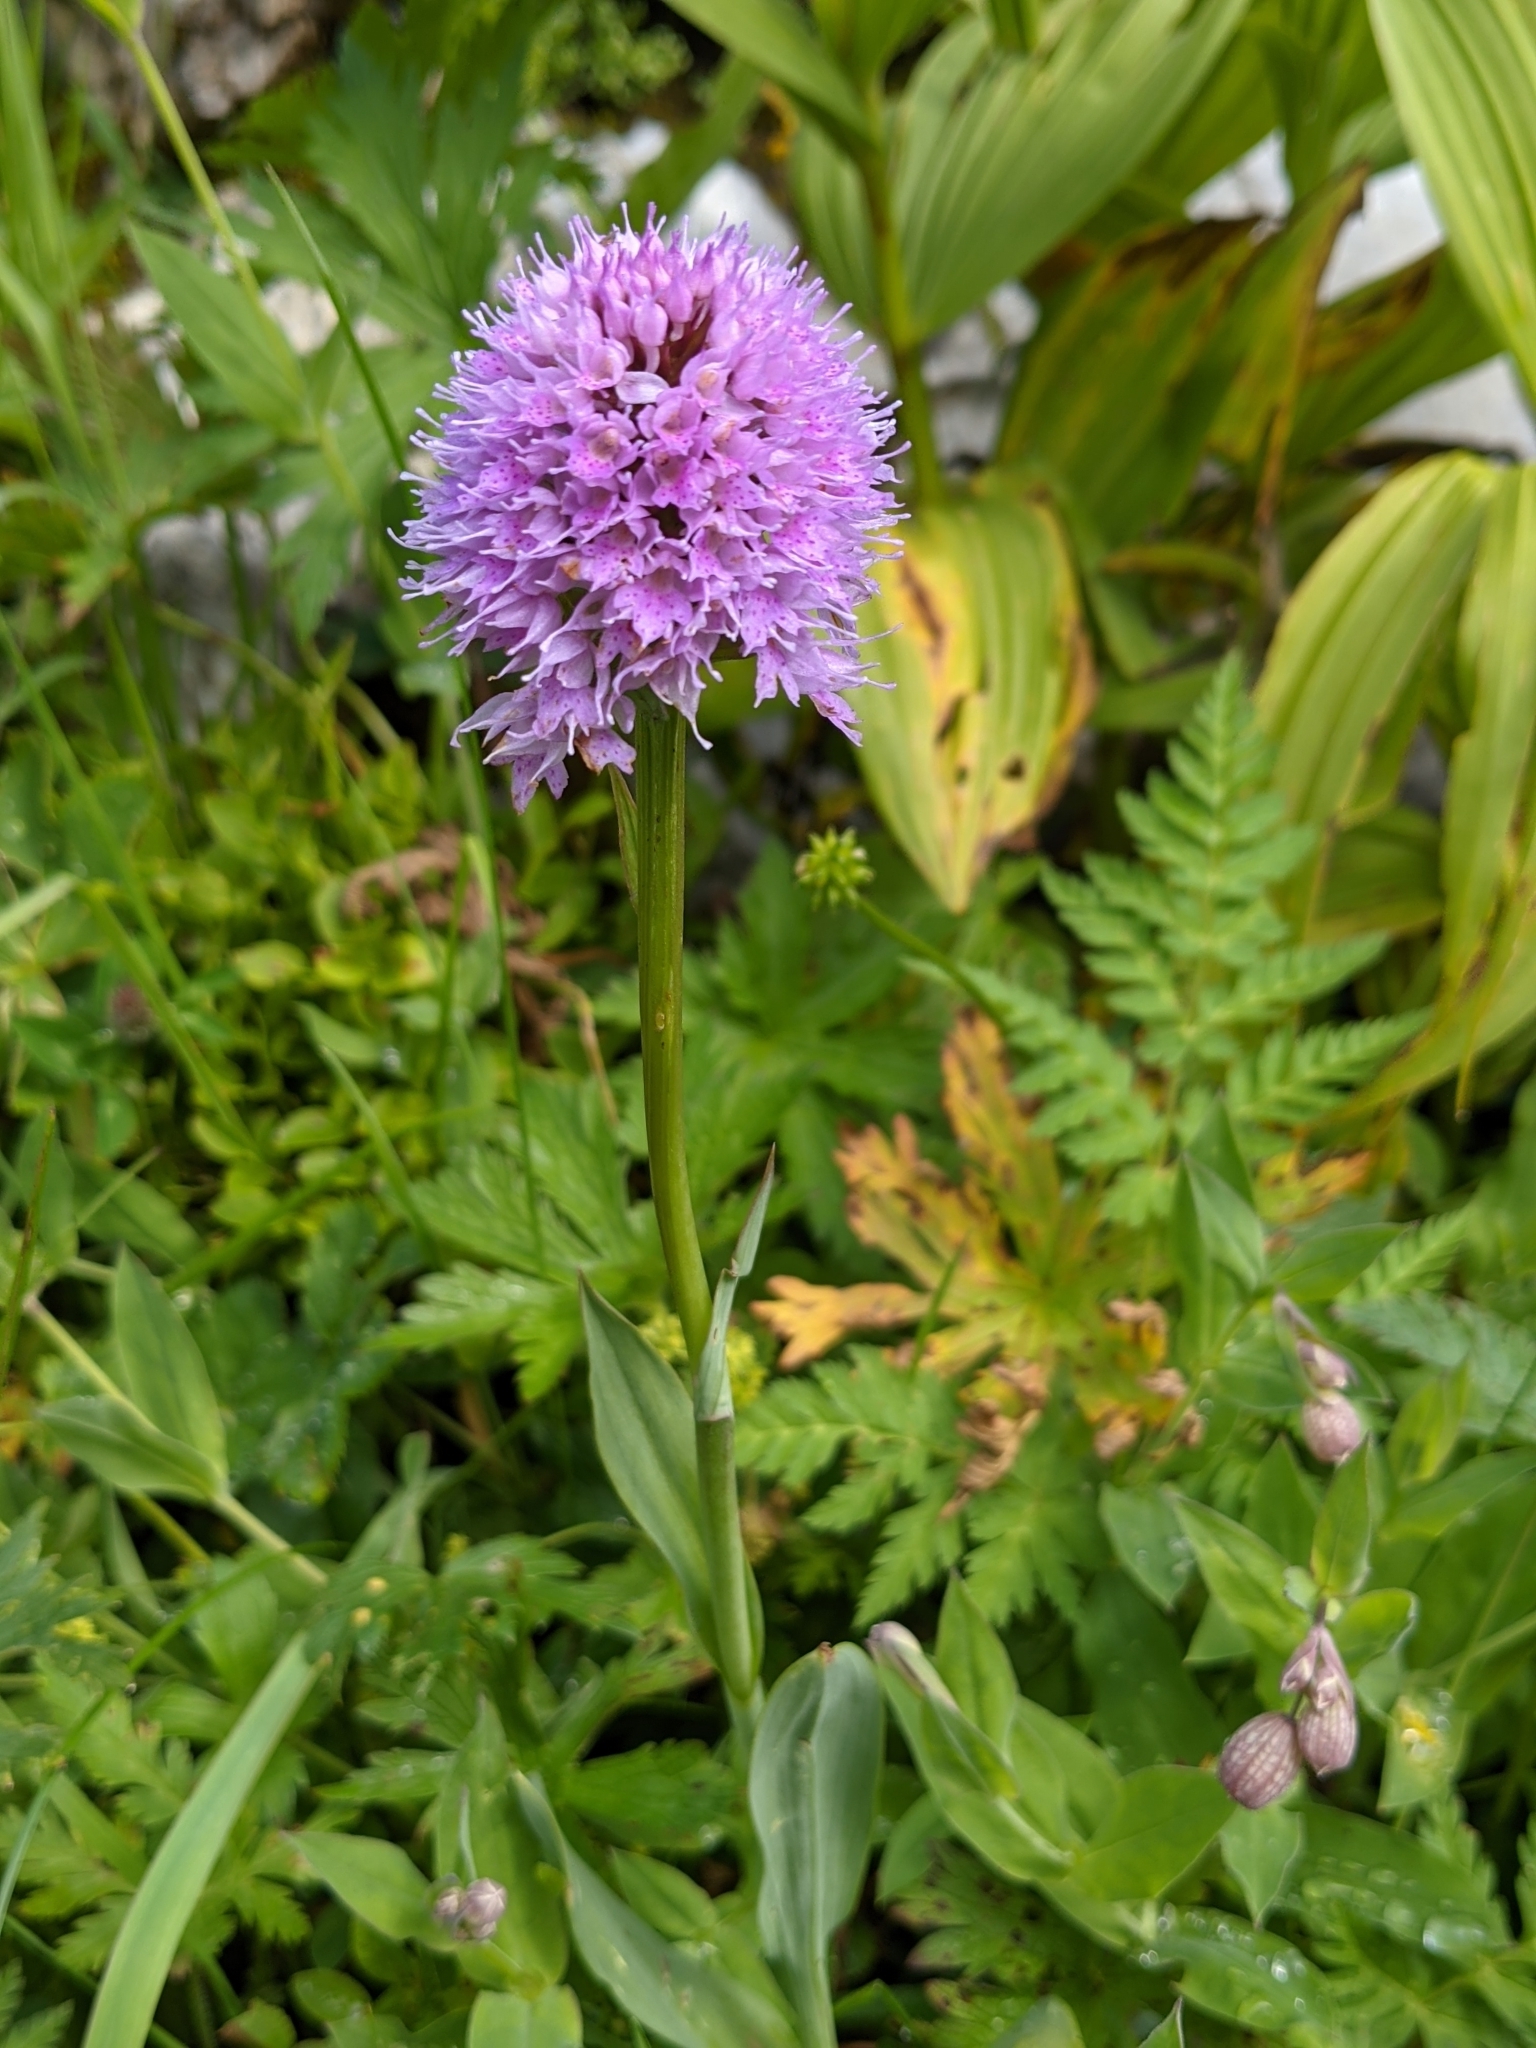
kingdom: Plantae
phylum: Tracheophyta
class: Liliopsida
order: Asparagales
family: Orchidaceae
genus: Traunsteinera
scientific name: Traunsteinera globosa
